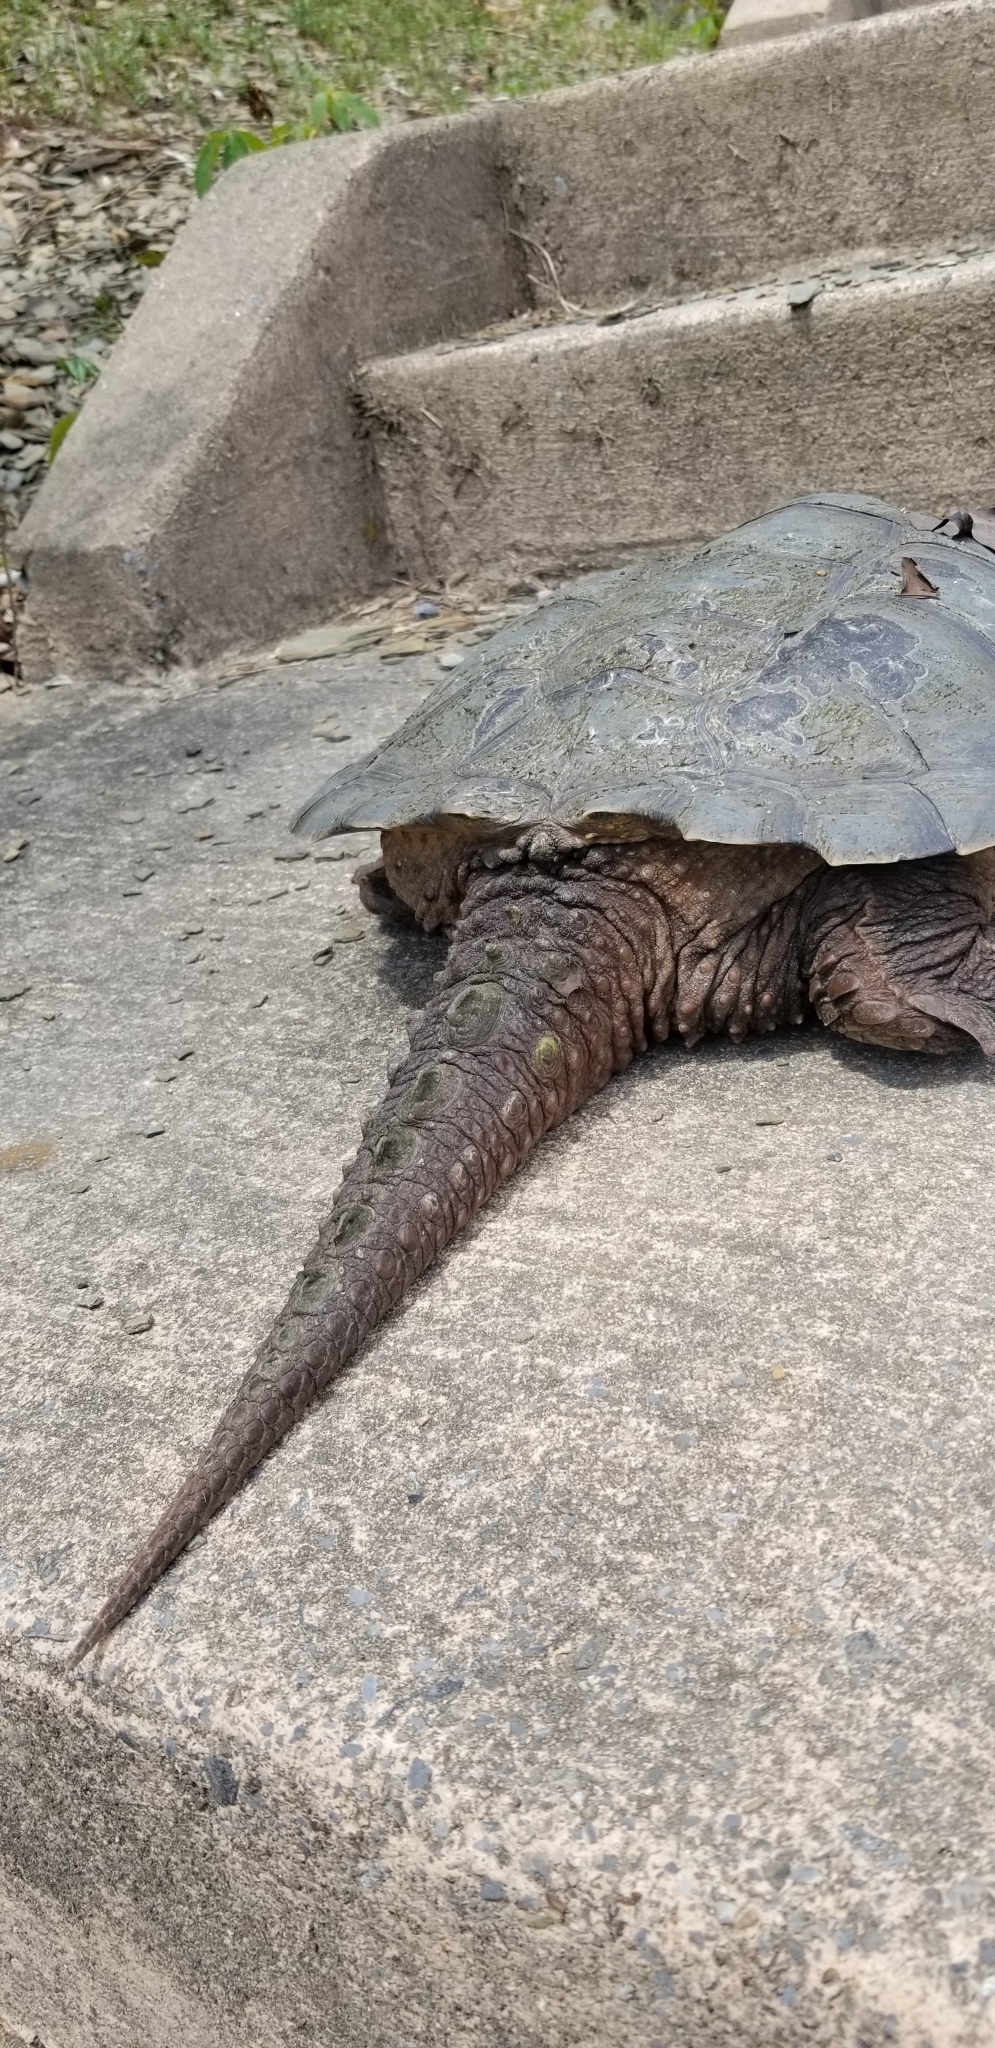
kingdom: Animalia
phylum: Chordata
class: Testudines
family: Chelydridae
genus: Chelydra
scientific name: Chelydra serpentina
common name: Common snapping turtle
